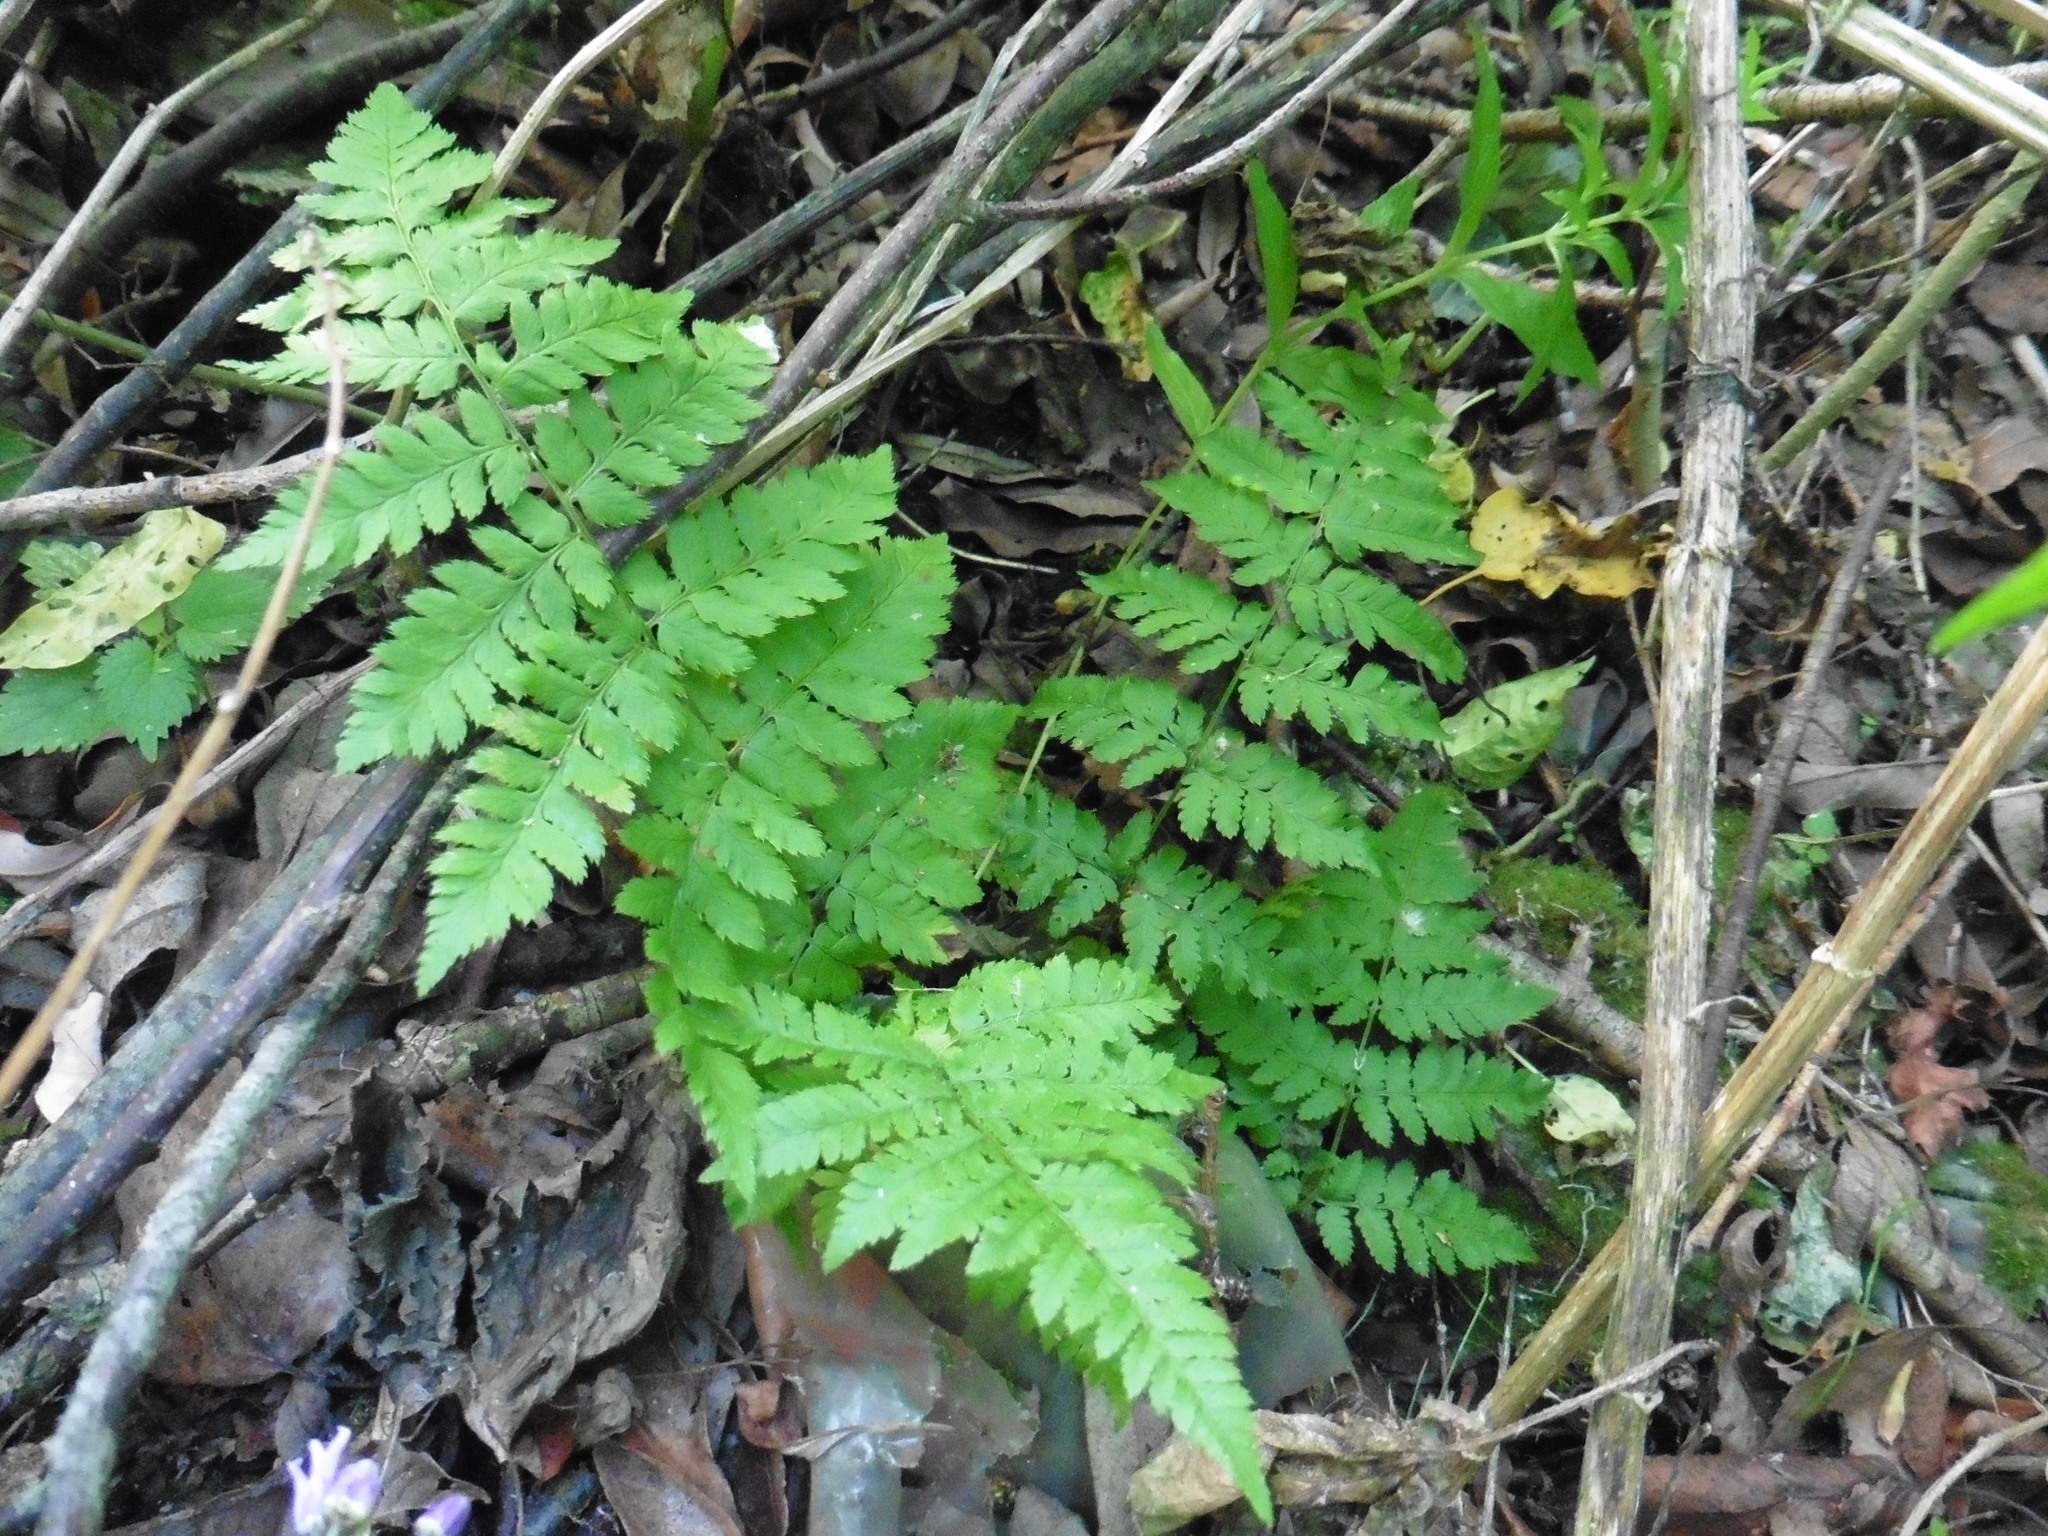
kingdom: Plantae
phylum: Tracheophyta
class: Polypodiopsida
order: Polypodiales
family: Dryopteridaceae
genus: Dryopteris
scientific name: Dryopteris carthusiana
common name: Narrow buckler-fern
